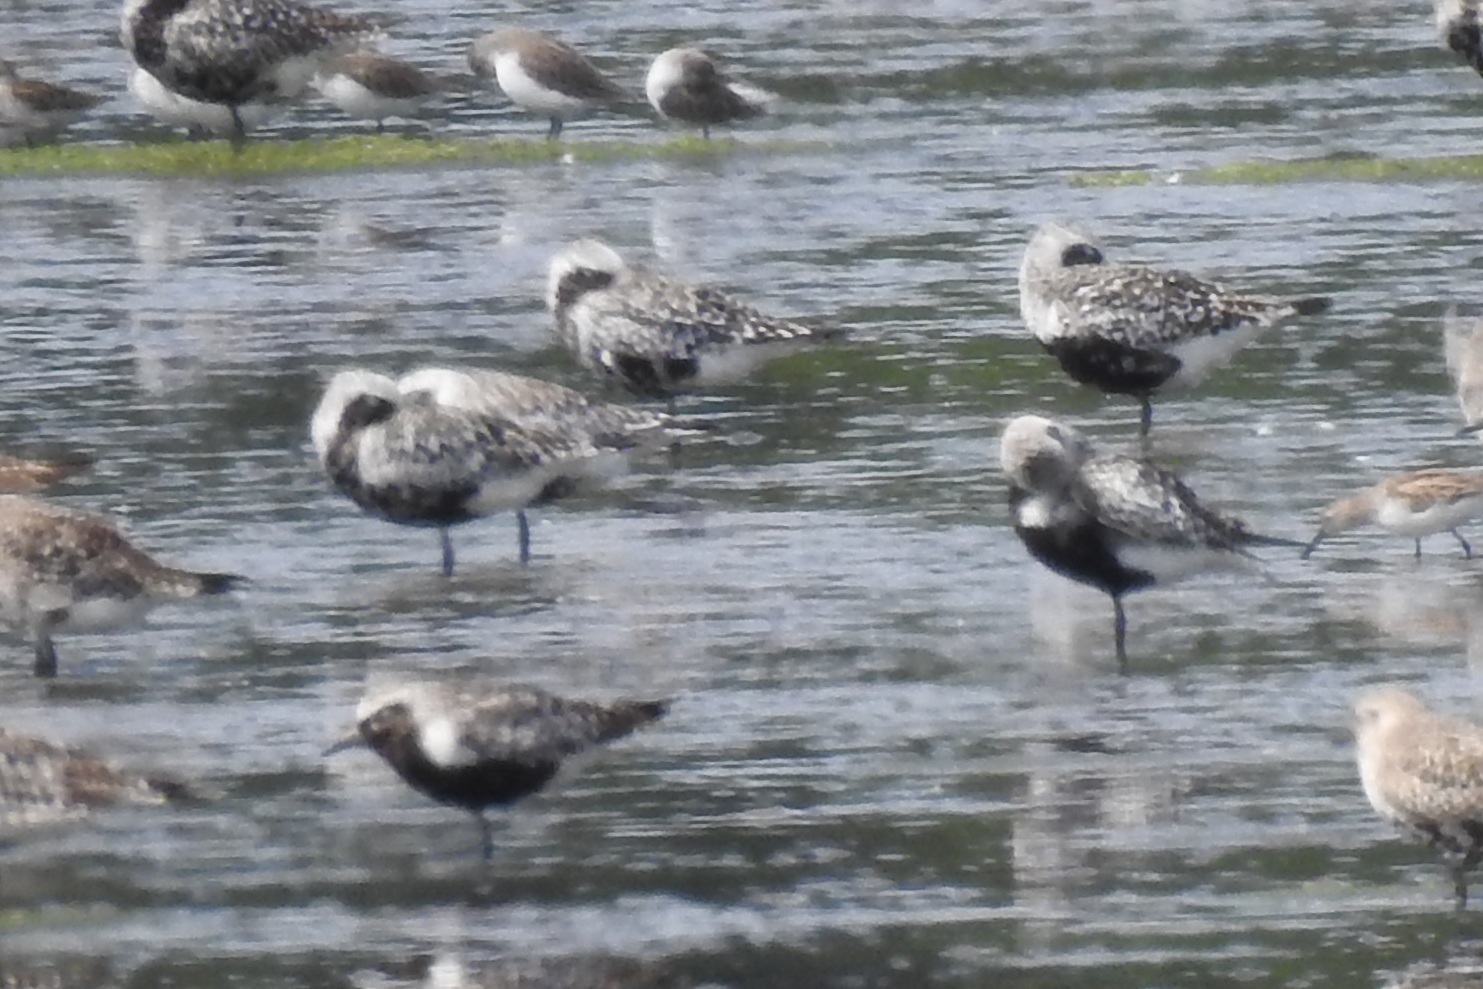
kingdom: Animalia
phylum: Chordata
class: Aves
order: Charadriiformes
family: Charadriidae
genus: Pluvialis
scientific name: Pluvialis squatarola
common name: Grey plover
